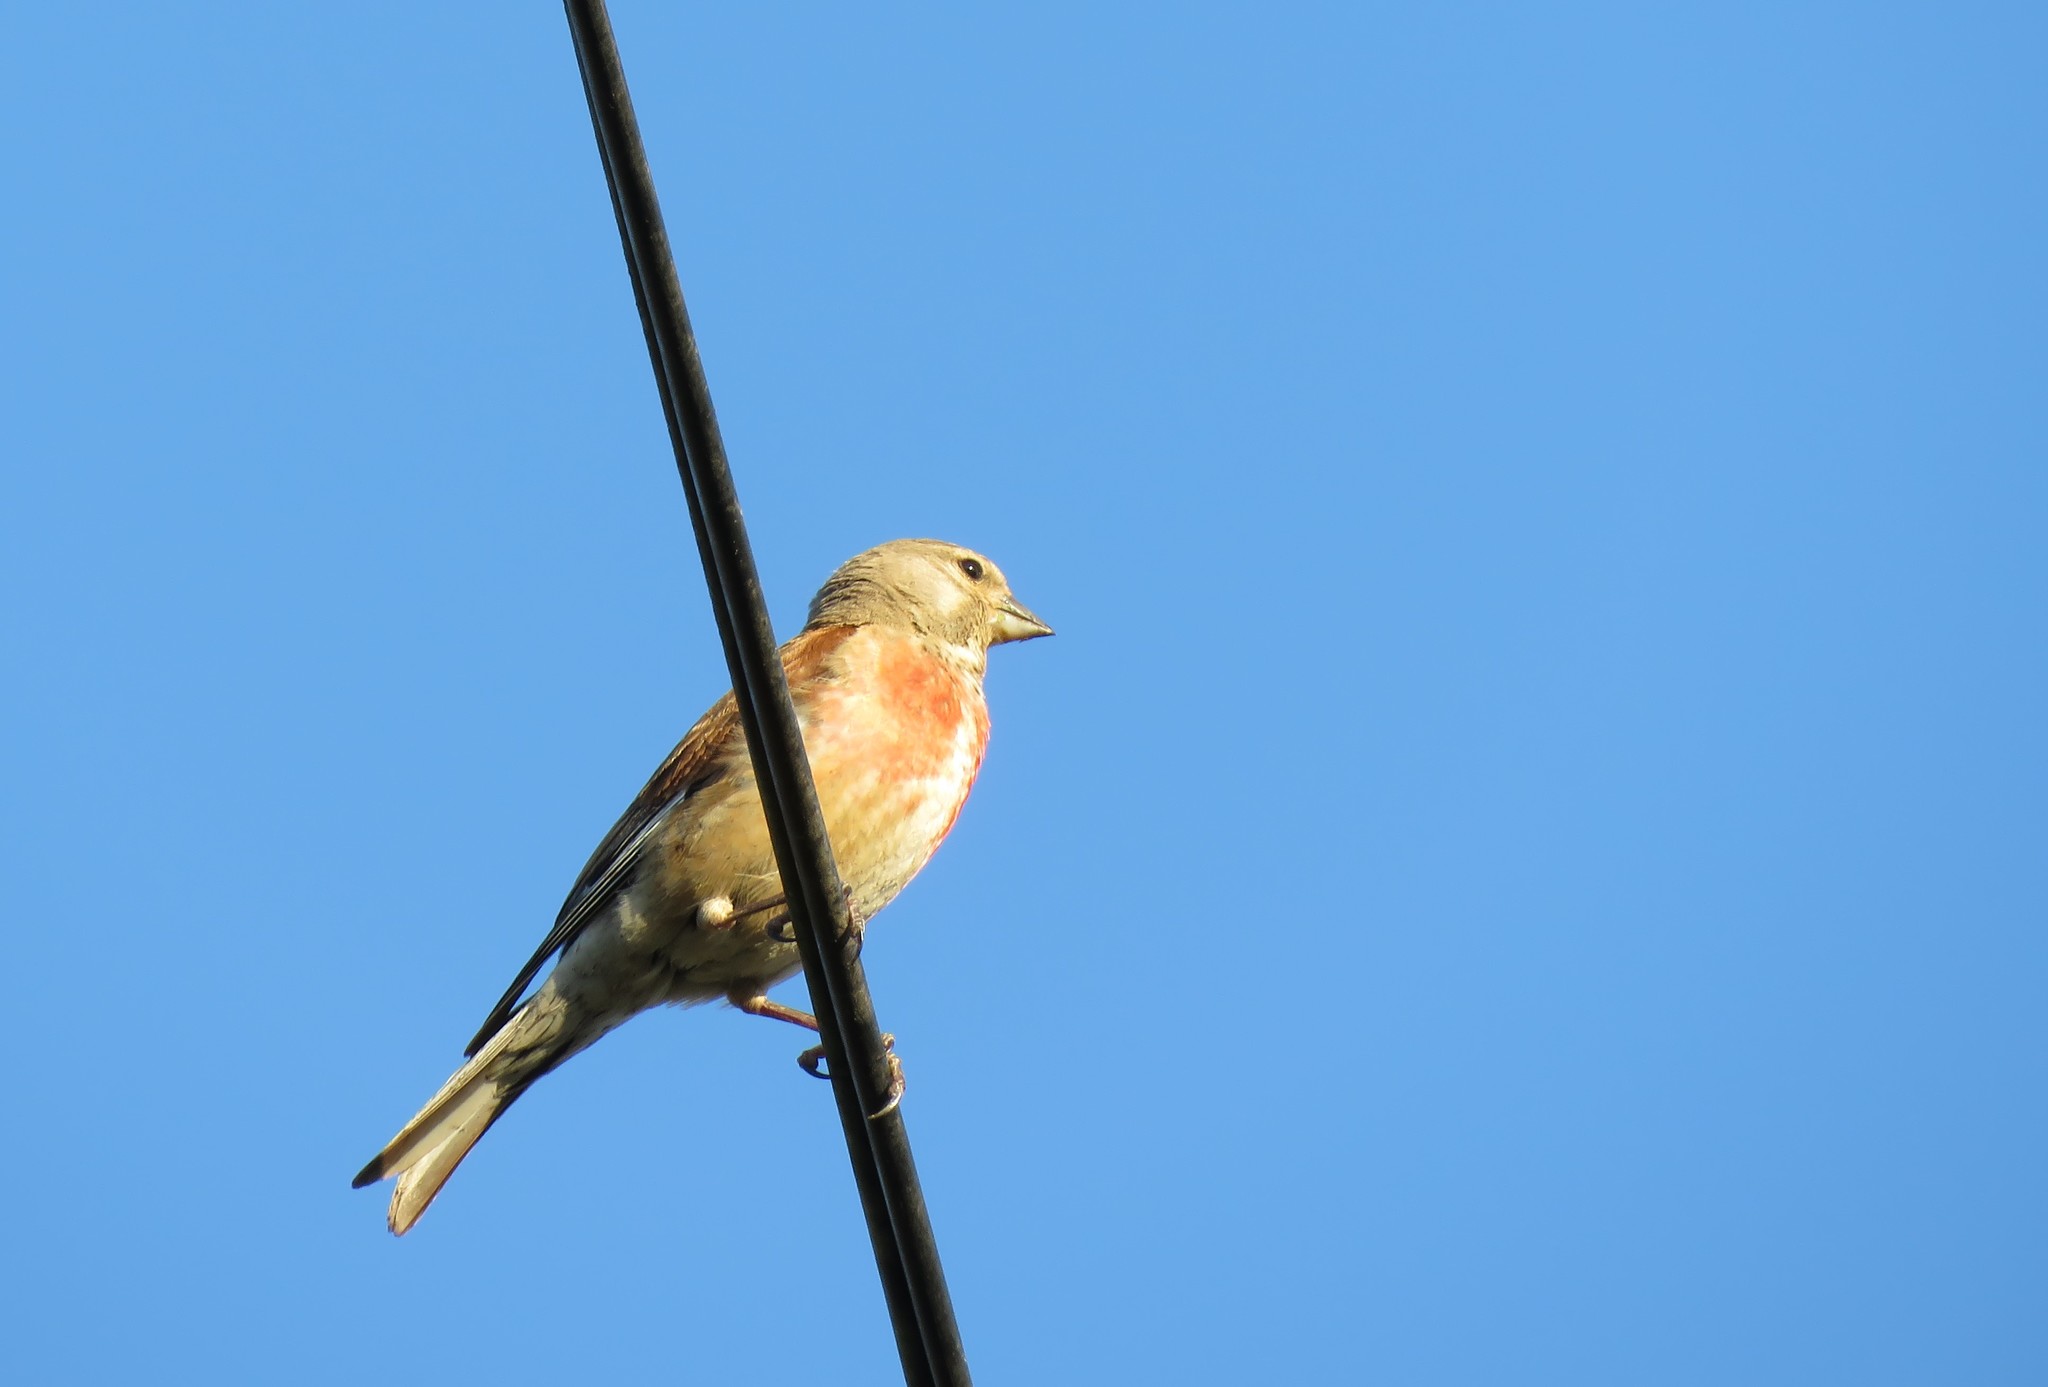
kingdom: Animalia
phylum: Chordata
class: Aves
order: Passeriformes
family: Fringillidae
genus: Linaria
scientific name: Linaria cannabina
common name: Common linnet
